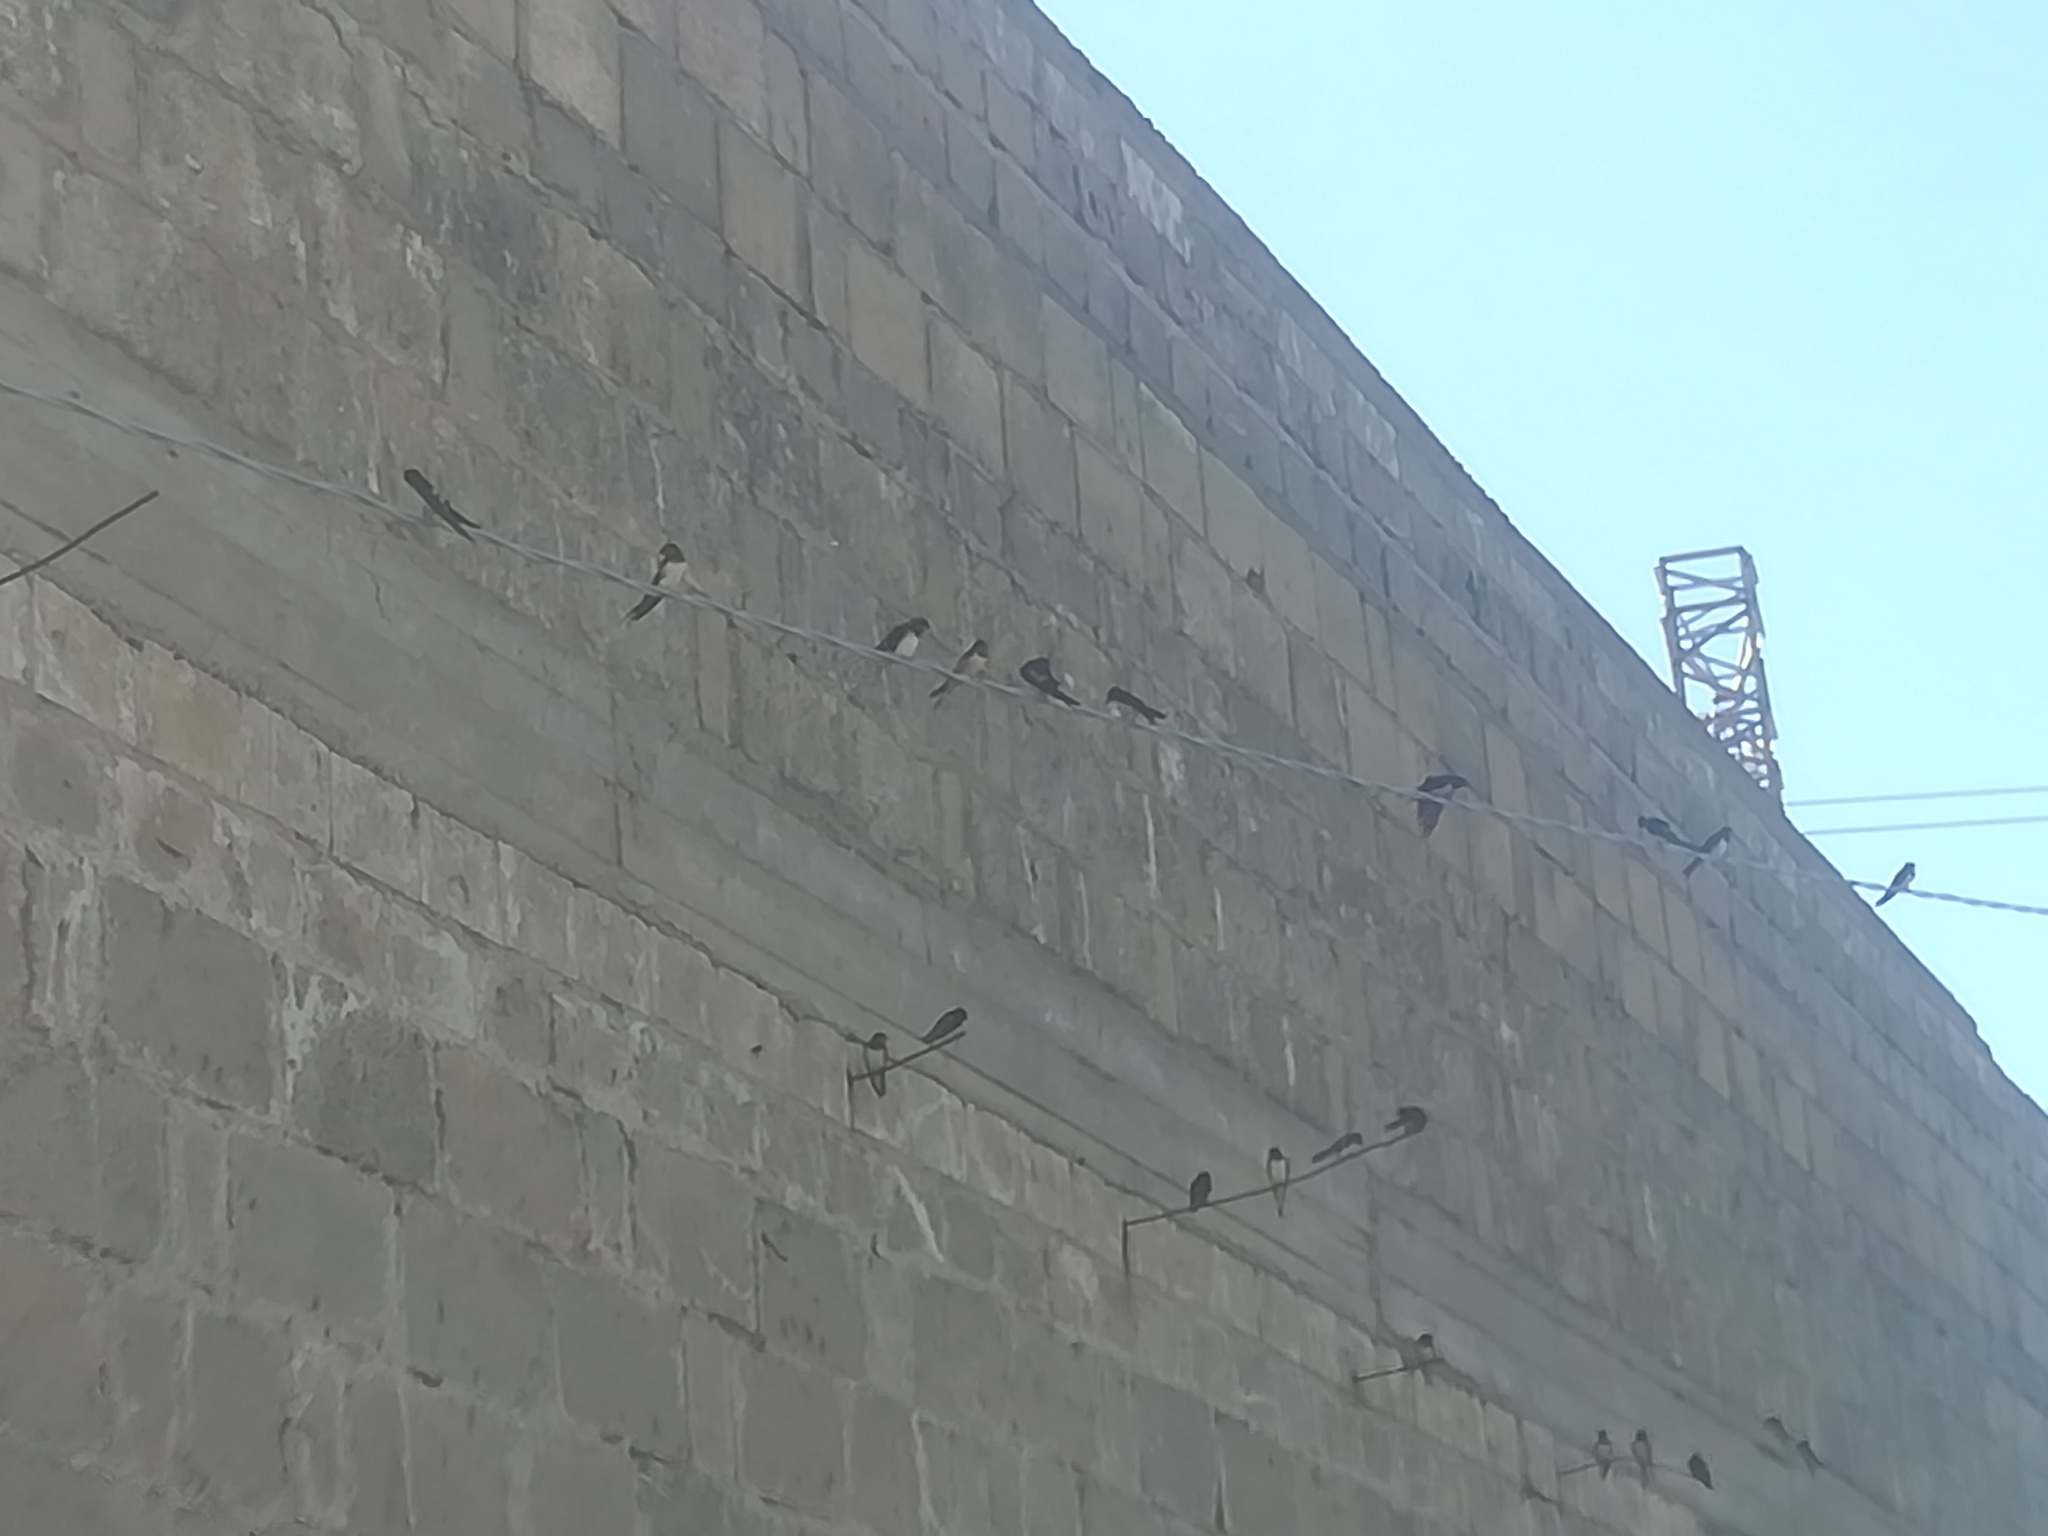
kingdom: Animalia
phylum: Chordata
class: Aves
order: Passeriformes
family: Hirundinidae
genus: Hirundo
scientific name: Hirundo rustica
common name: Barn swallow
